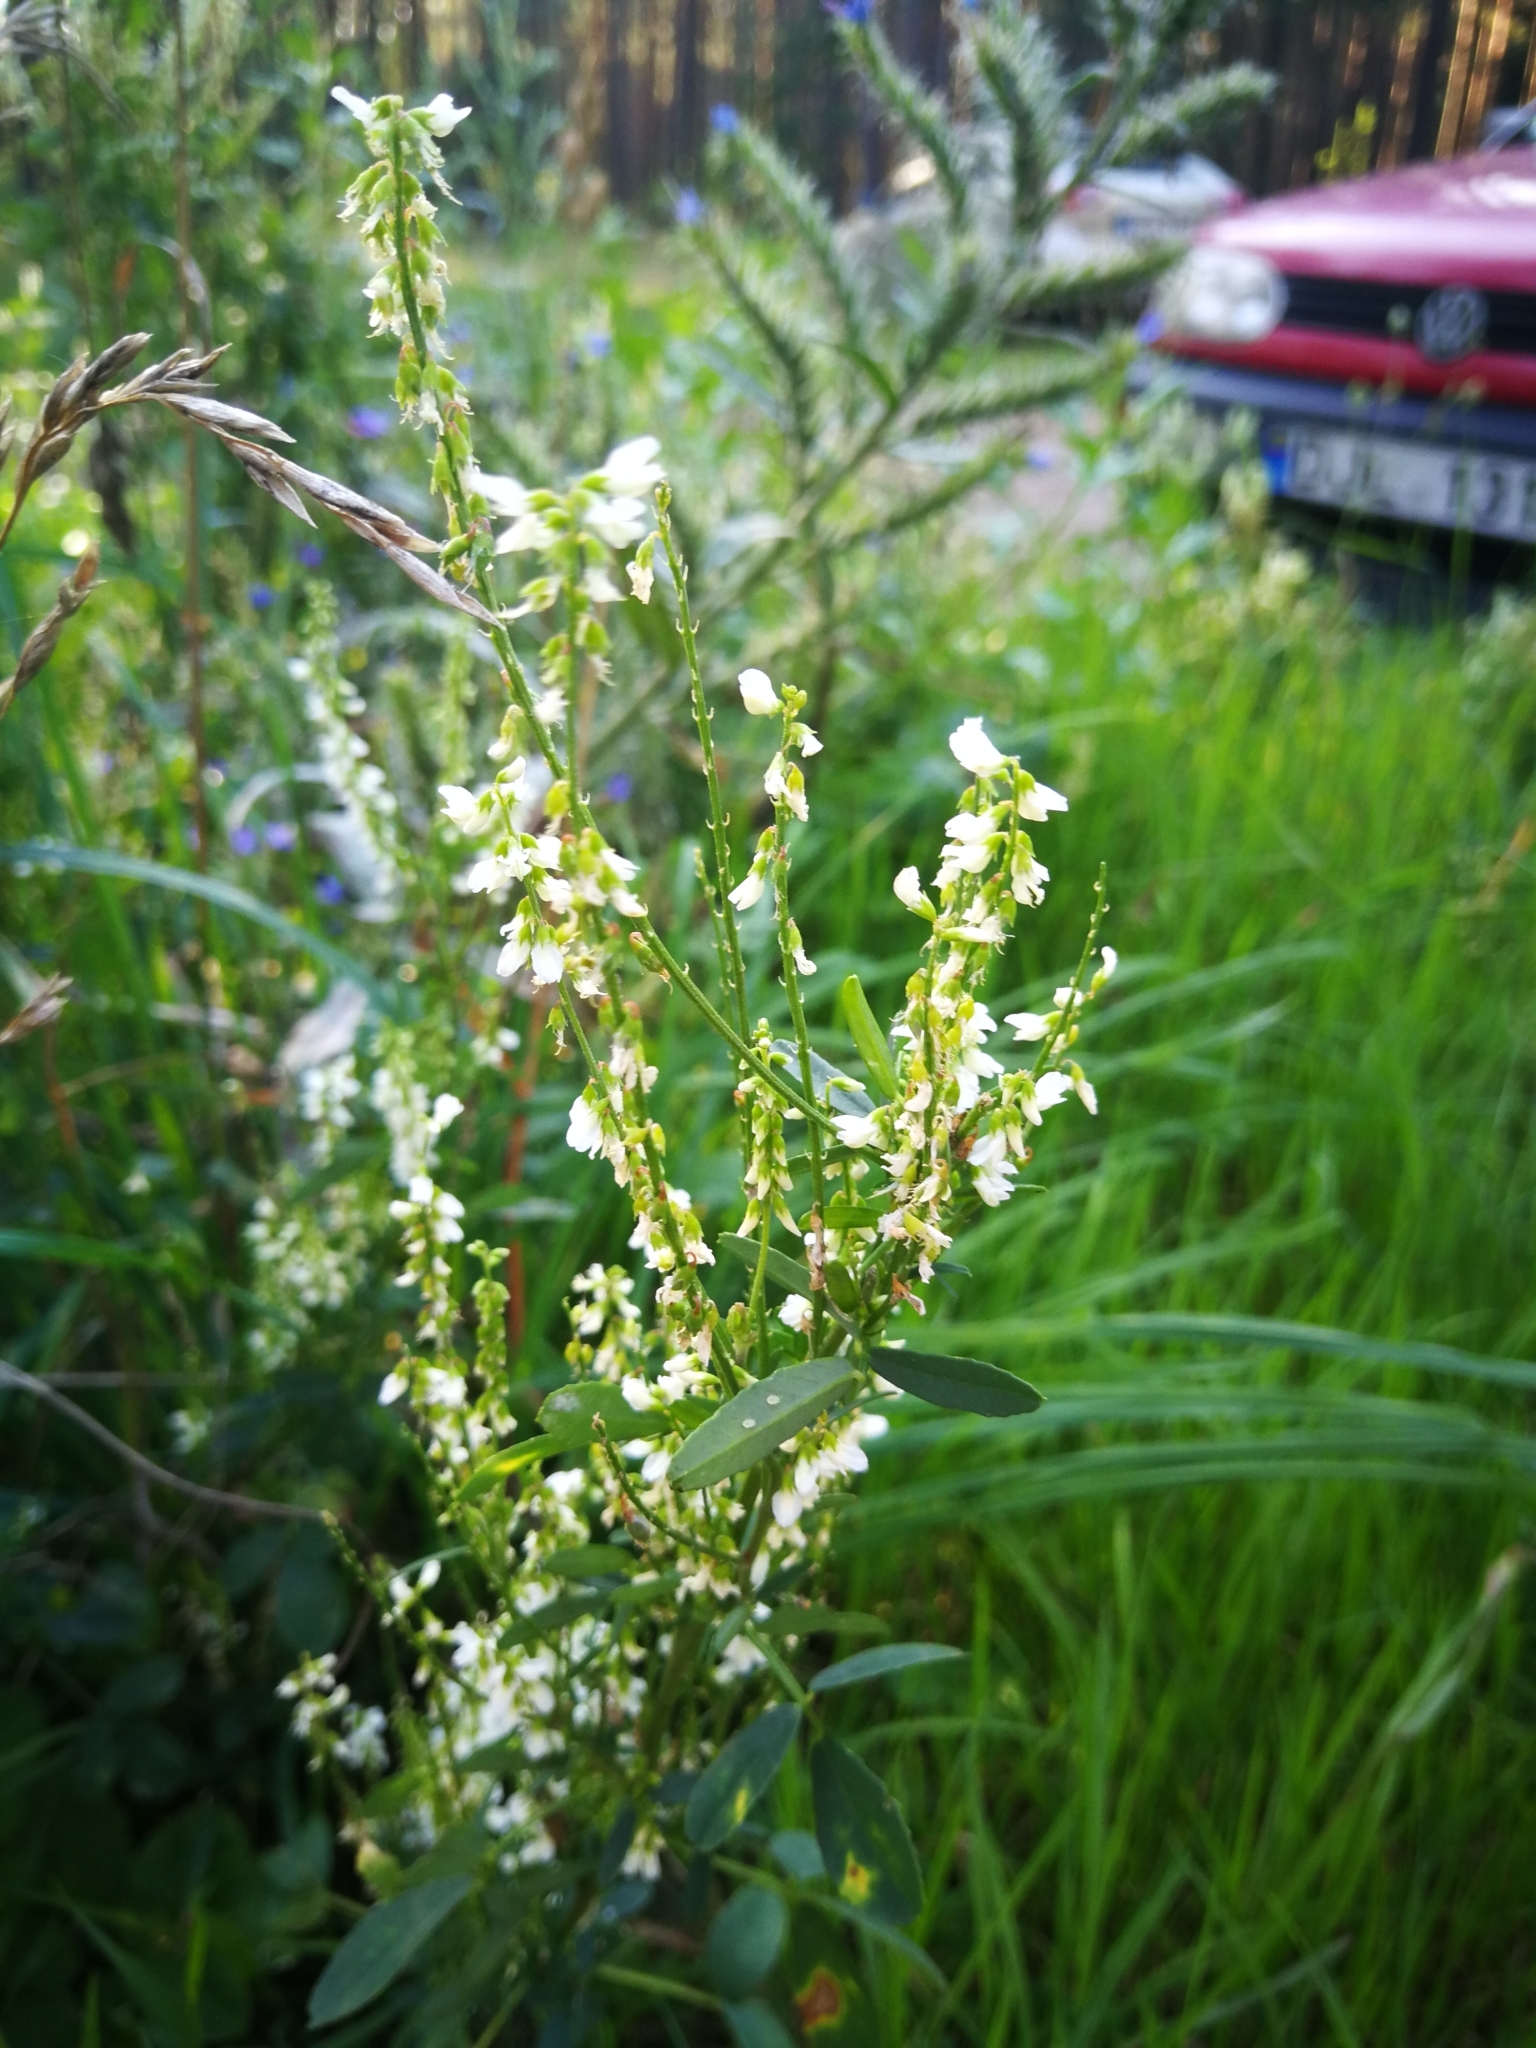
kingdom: Plantae
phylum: Tracheophyta
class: Magnoliopsida
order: Fabales
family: Fabaceae
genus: Melilotus
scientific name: Melilotus albus
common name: White melilot
